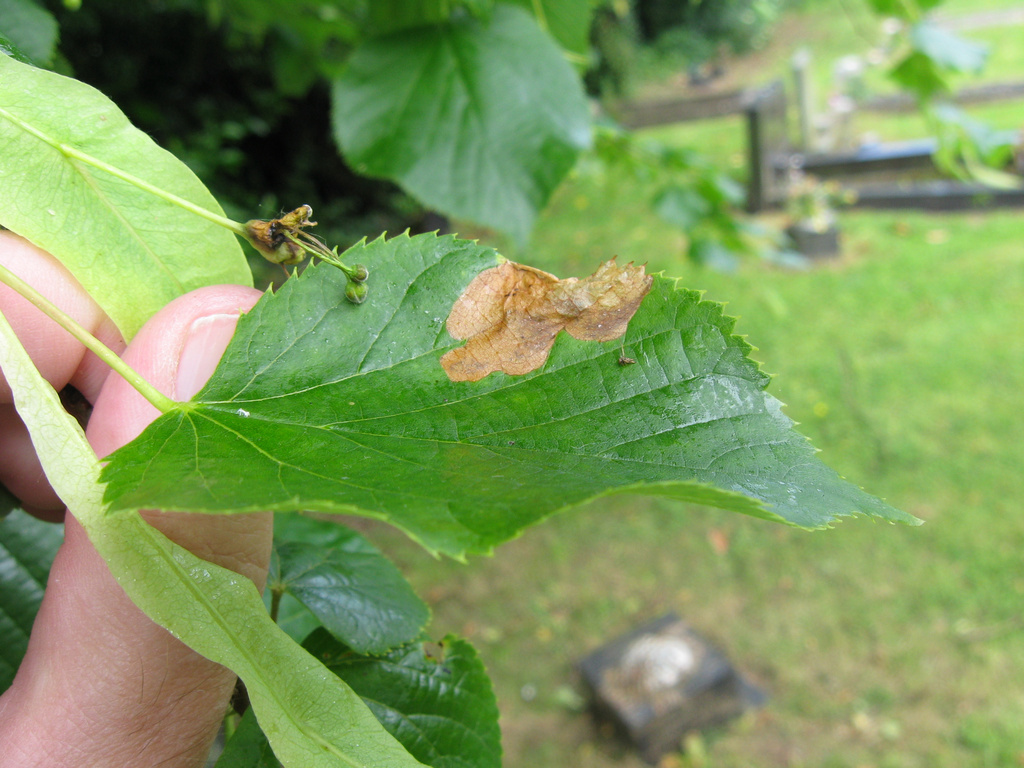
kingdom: Animalia
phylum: Arthropoda
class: Insecta
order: Hymenoptera
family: Tenthredinidae
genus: Parna
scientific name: Parna apicalis
